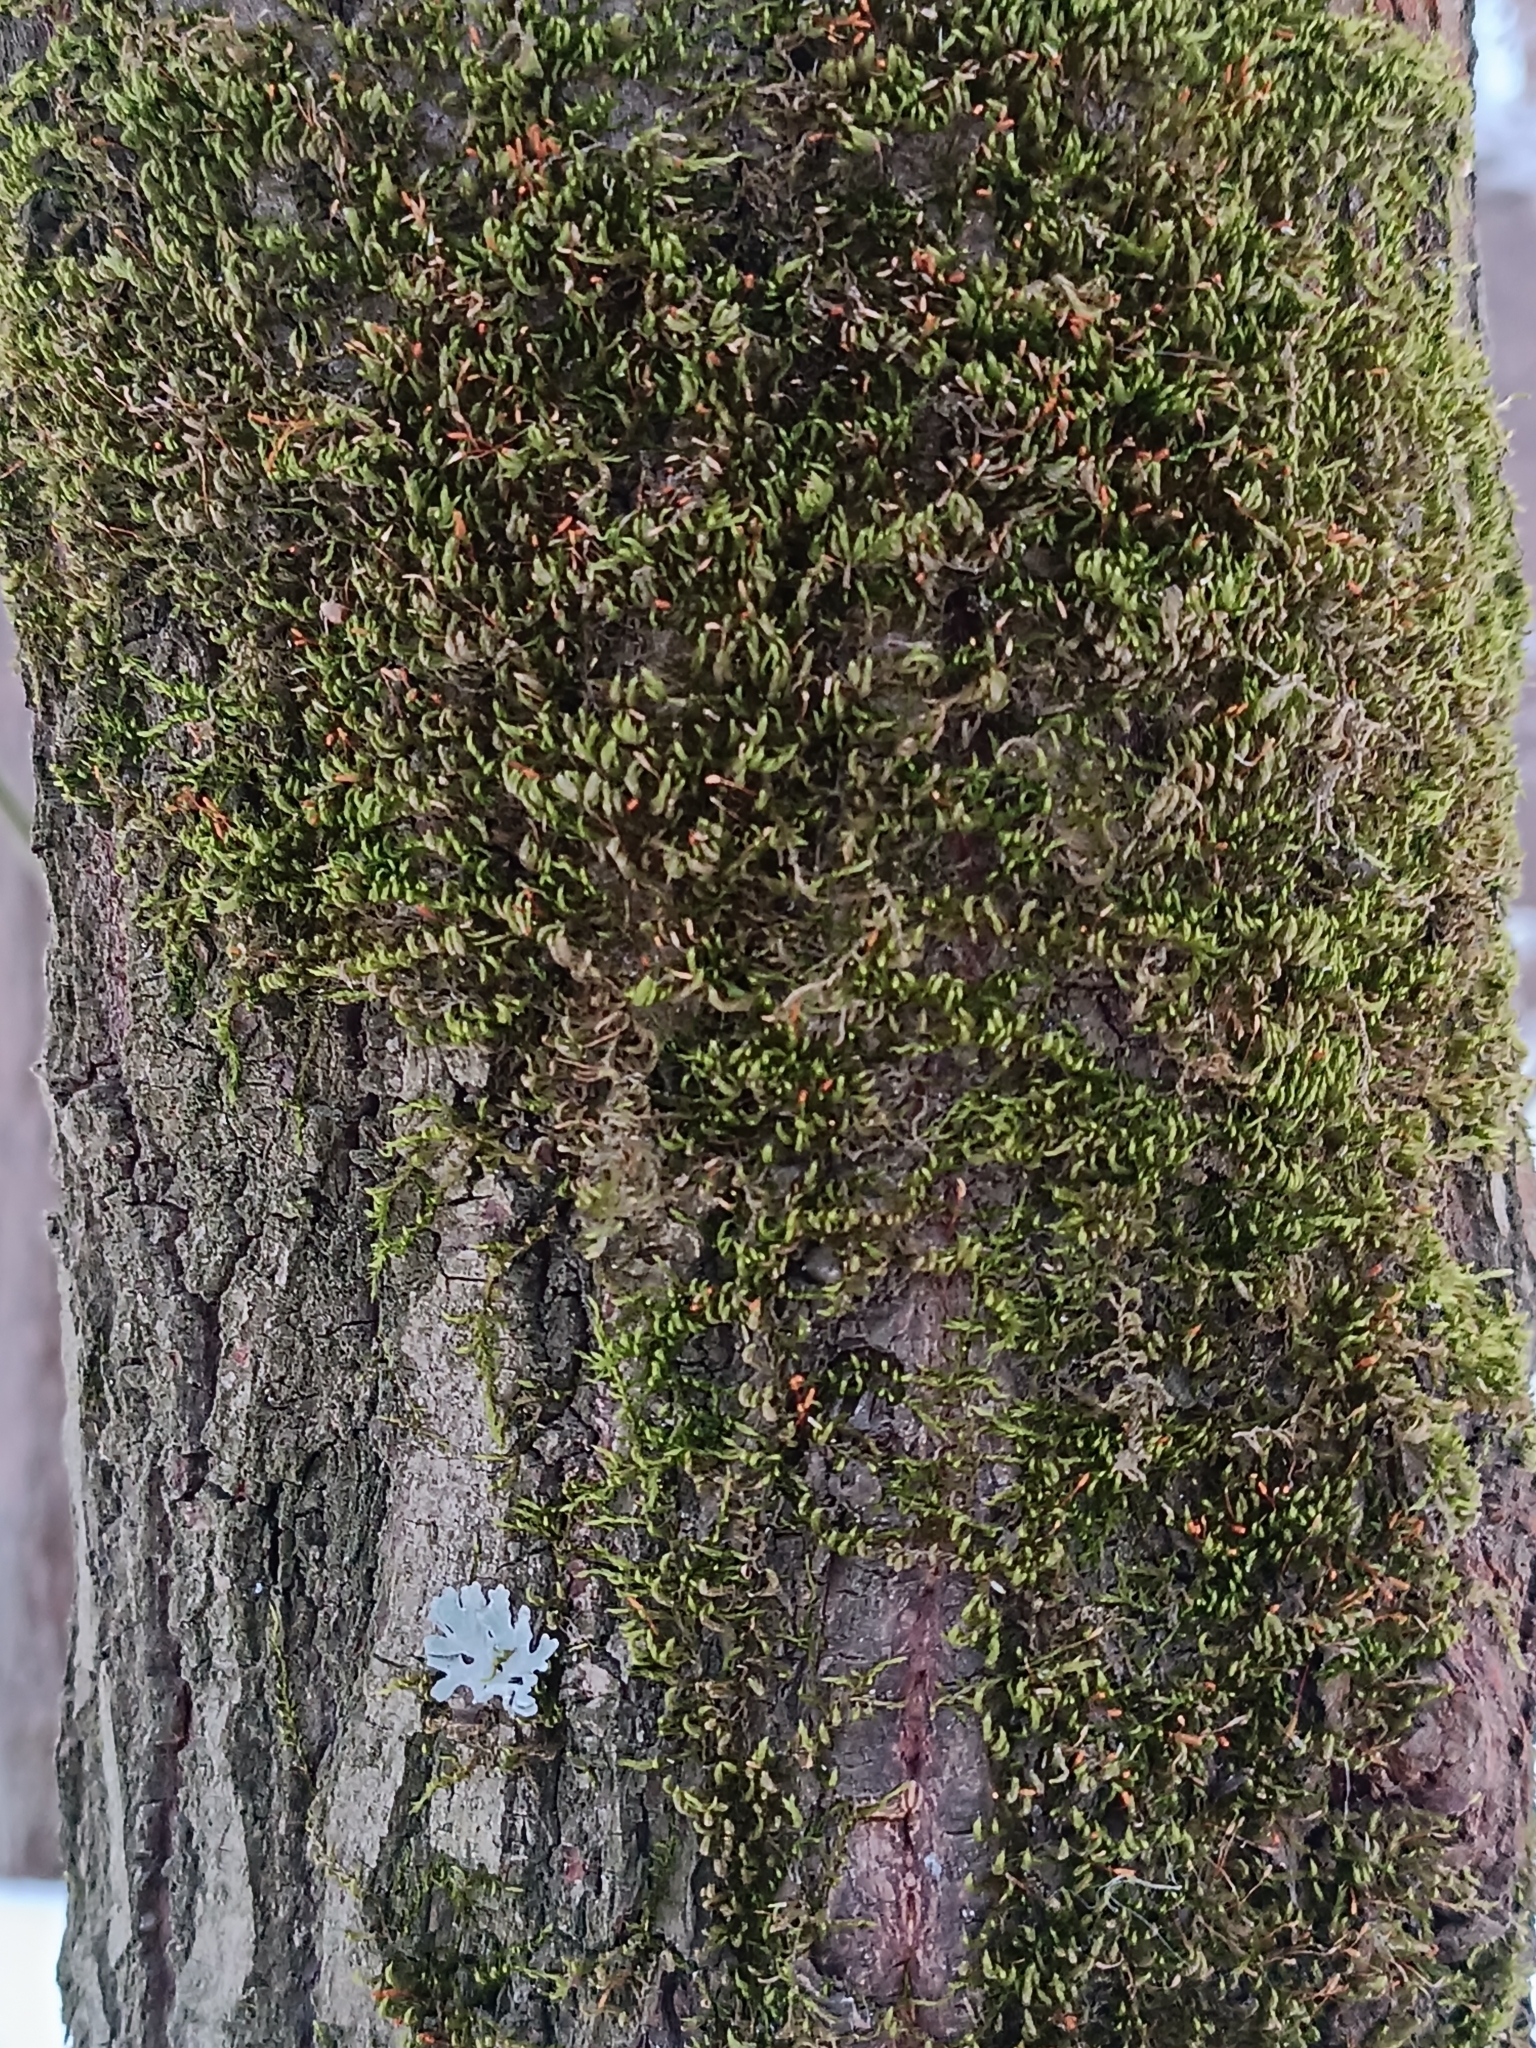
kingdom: Plantae
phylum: Bryophyta
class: Bryopsida
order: Hypnales
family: Pylaisiaceae
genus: Pylaisia
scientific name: Pylaisia polyantha
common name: Many-flowered leskea
